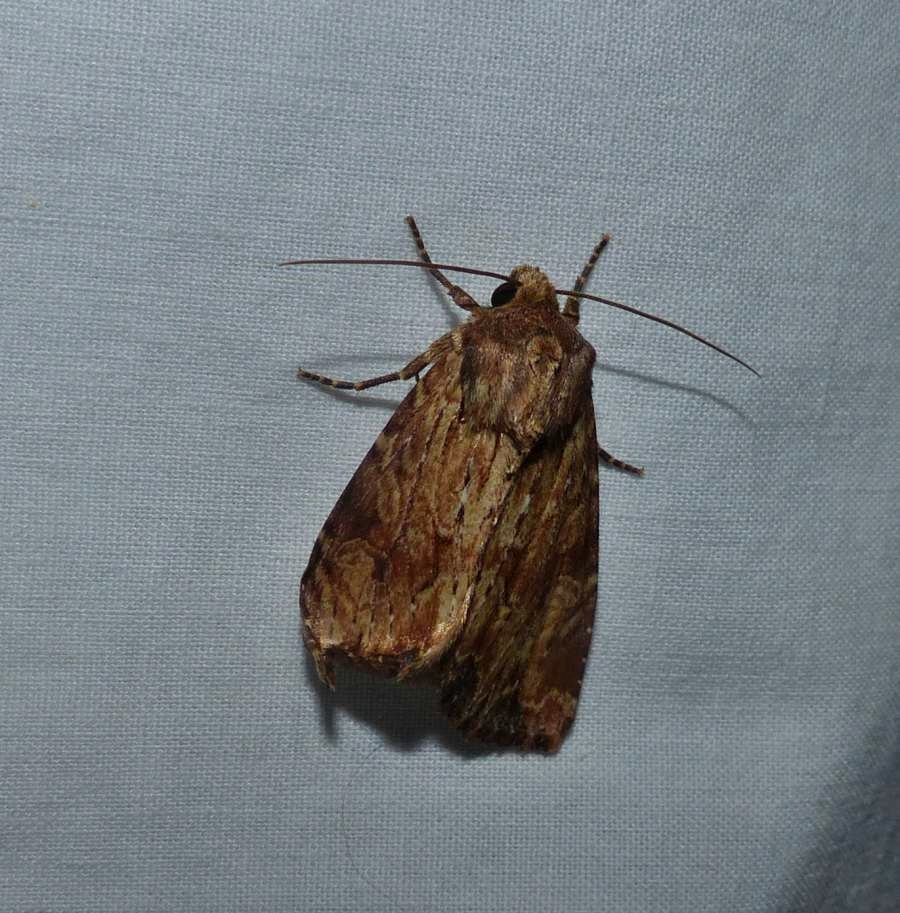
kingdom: Animalia
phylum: Arthropoda
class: Insecta
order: Lepidoptera
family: Noctuidae
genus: Apamea
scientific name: Apamea lignicolora
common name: Wood-colored apamea moth
